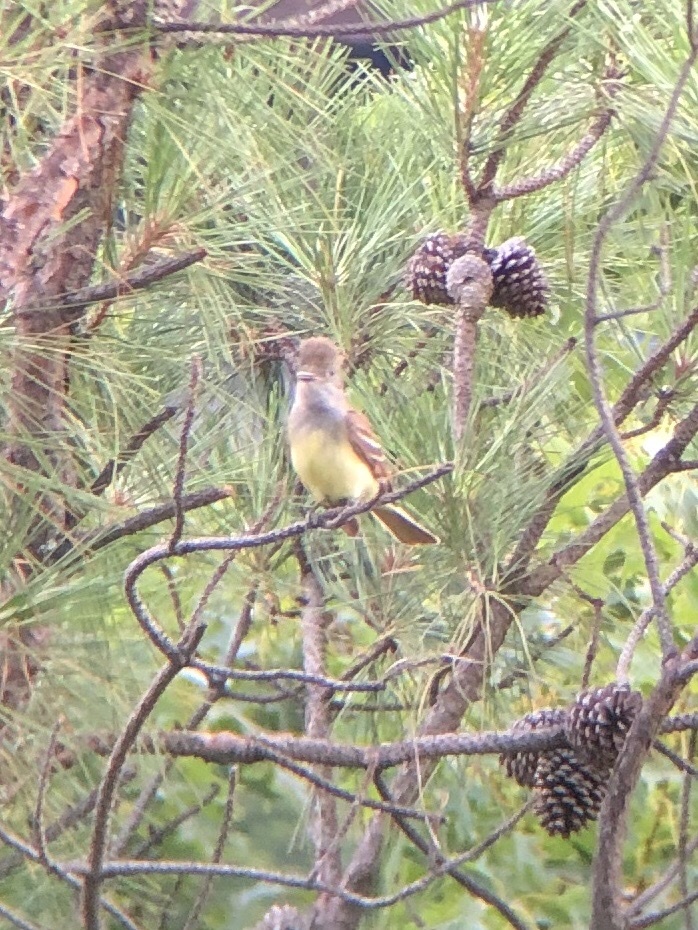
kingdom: Animalia
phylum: Chordata
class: Aves
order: Passeriformes
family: Tyrannidae
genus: Myiarchus
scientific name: Myiarchus crinitus
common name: Great crested flycatcher
